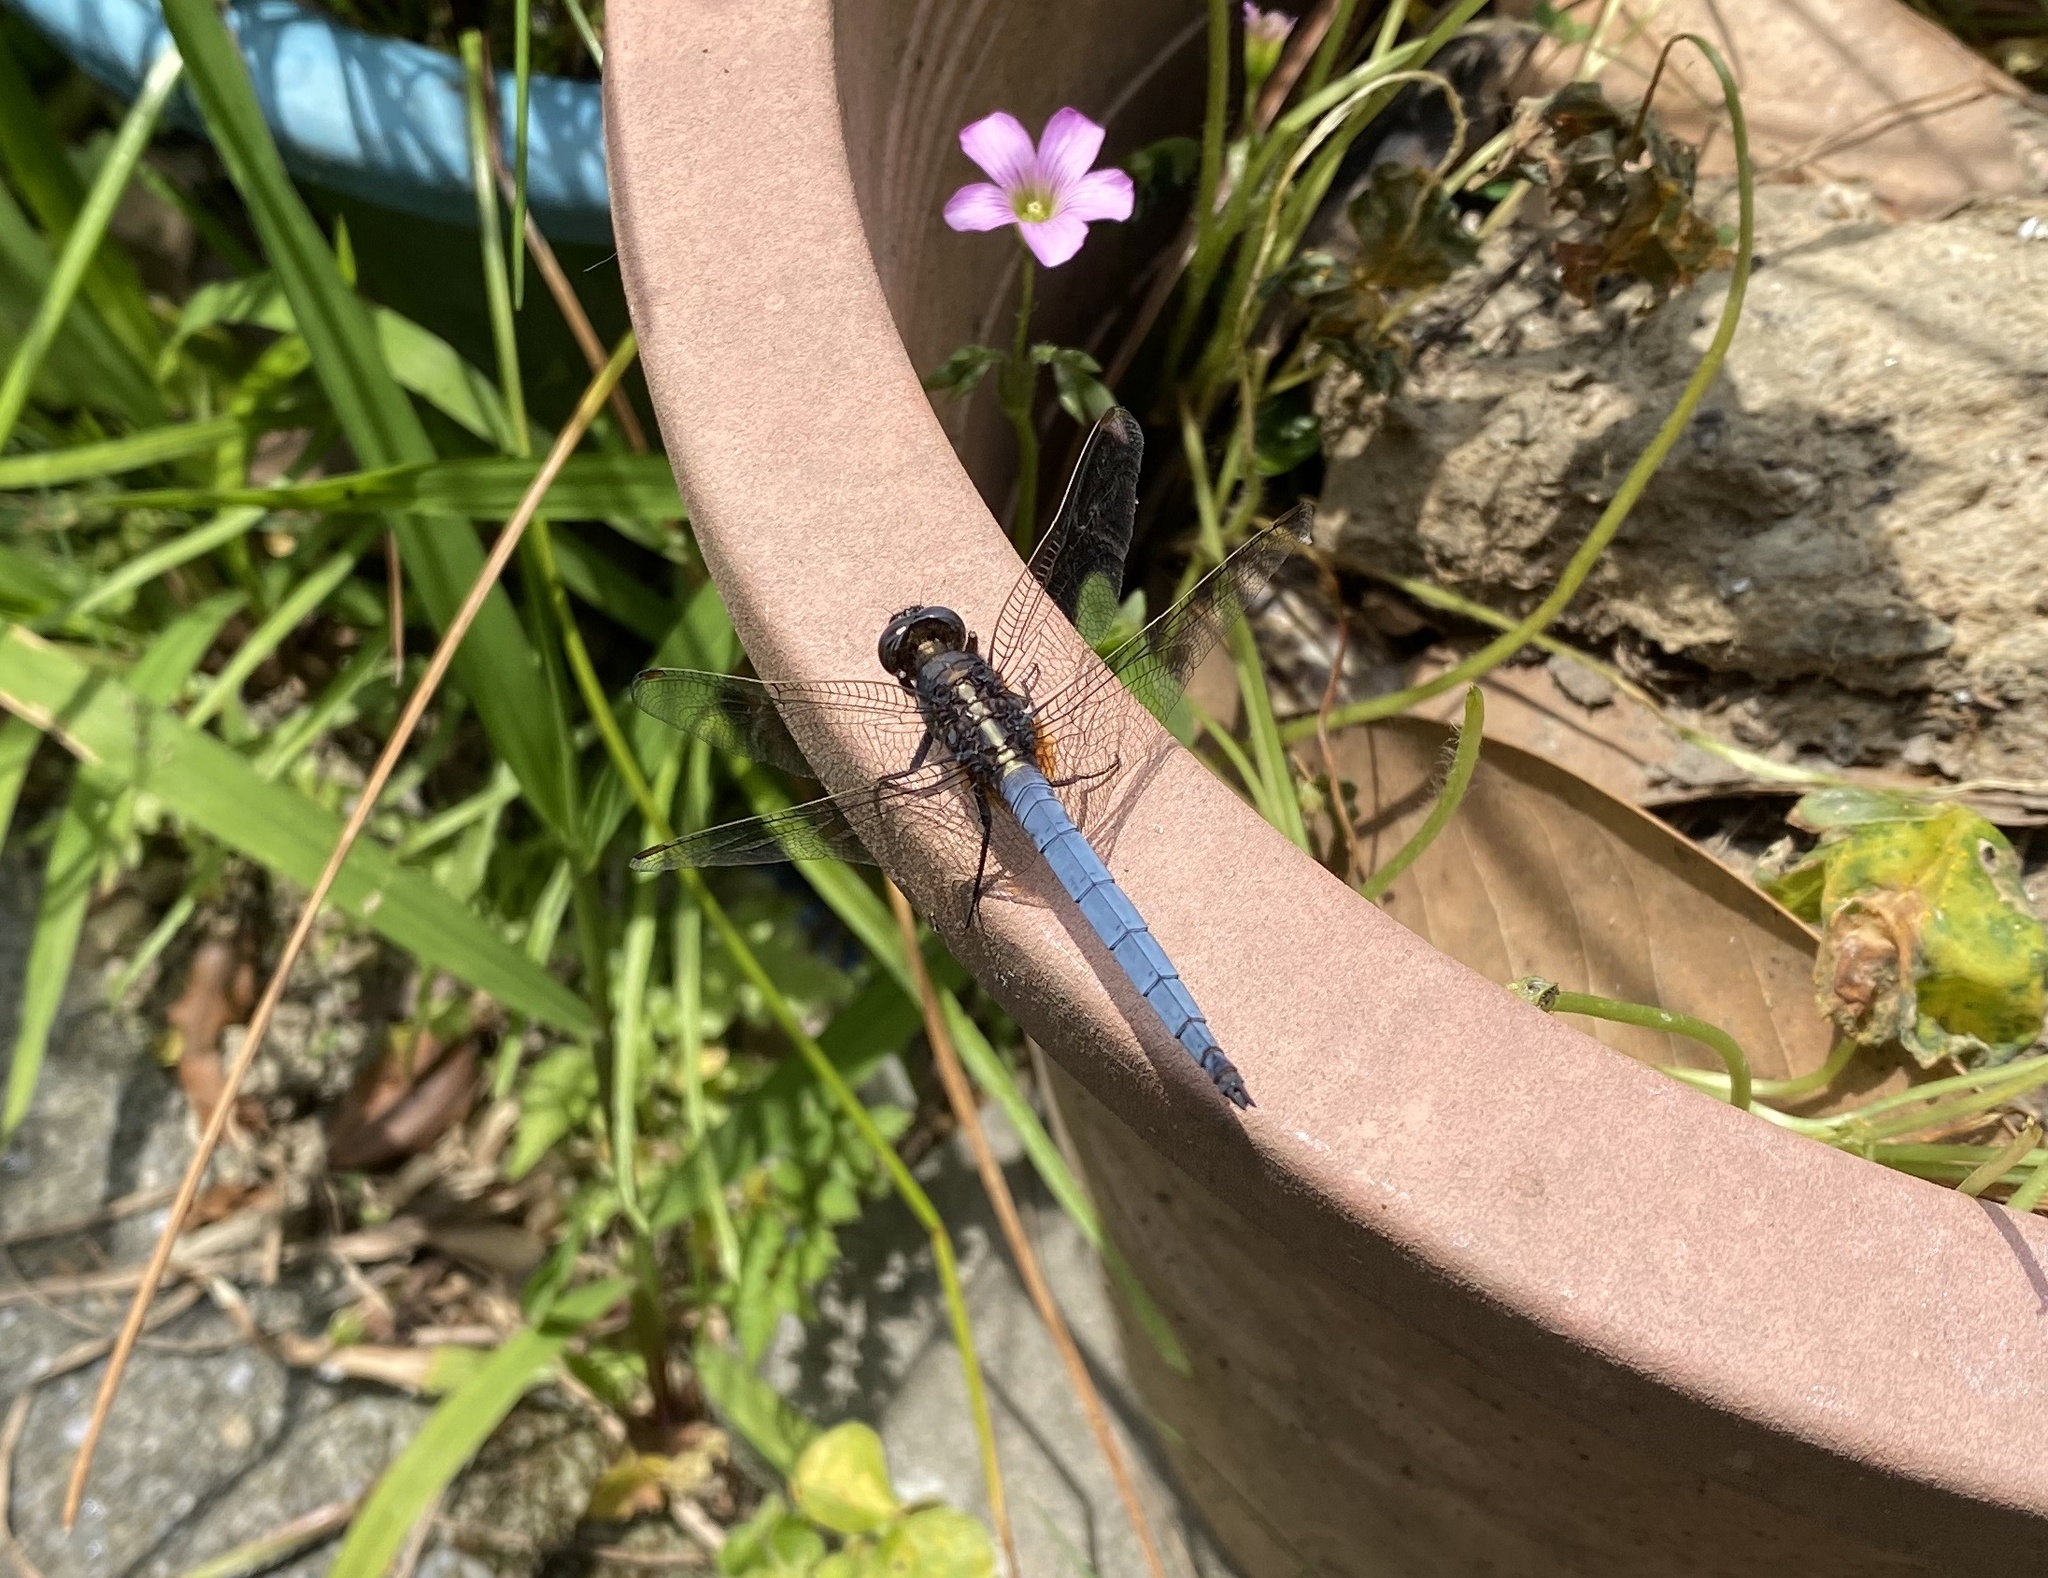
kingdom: Animalia
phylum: Arthropoda
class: Insecta
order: Odonata
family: Libellulidae
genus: Orthetrum
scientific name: Orthetrum glaucum
